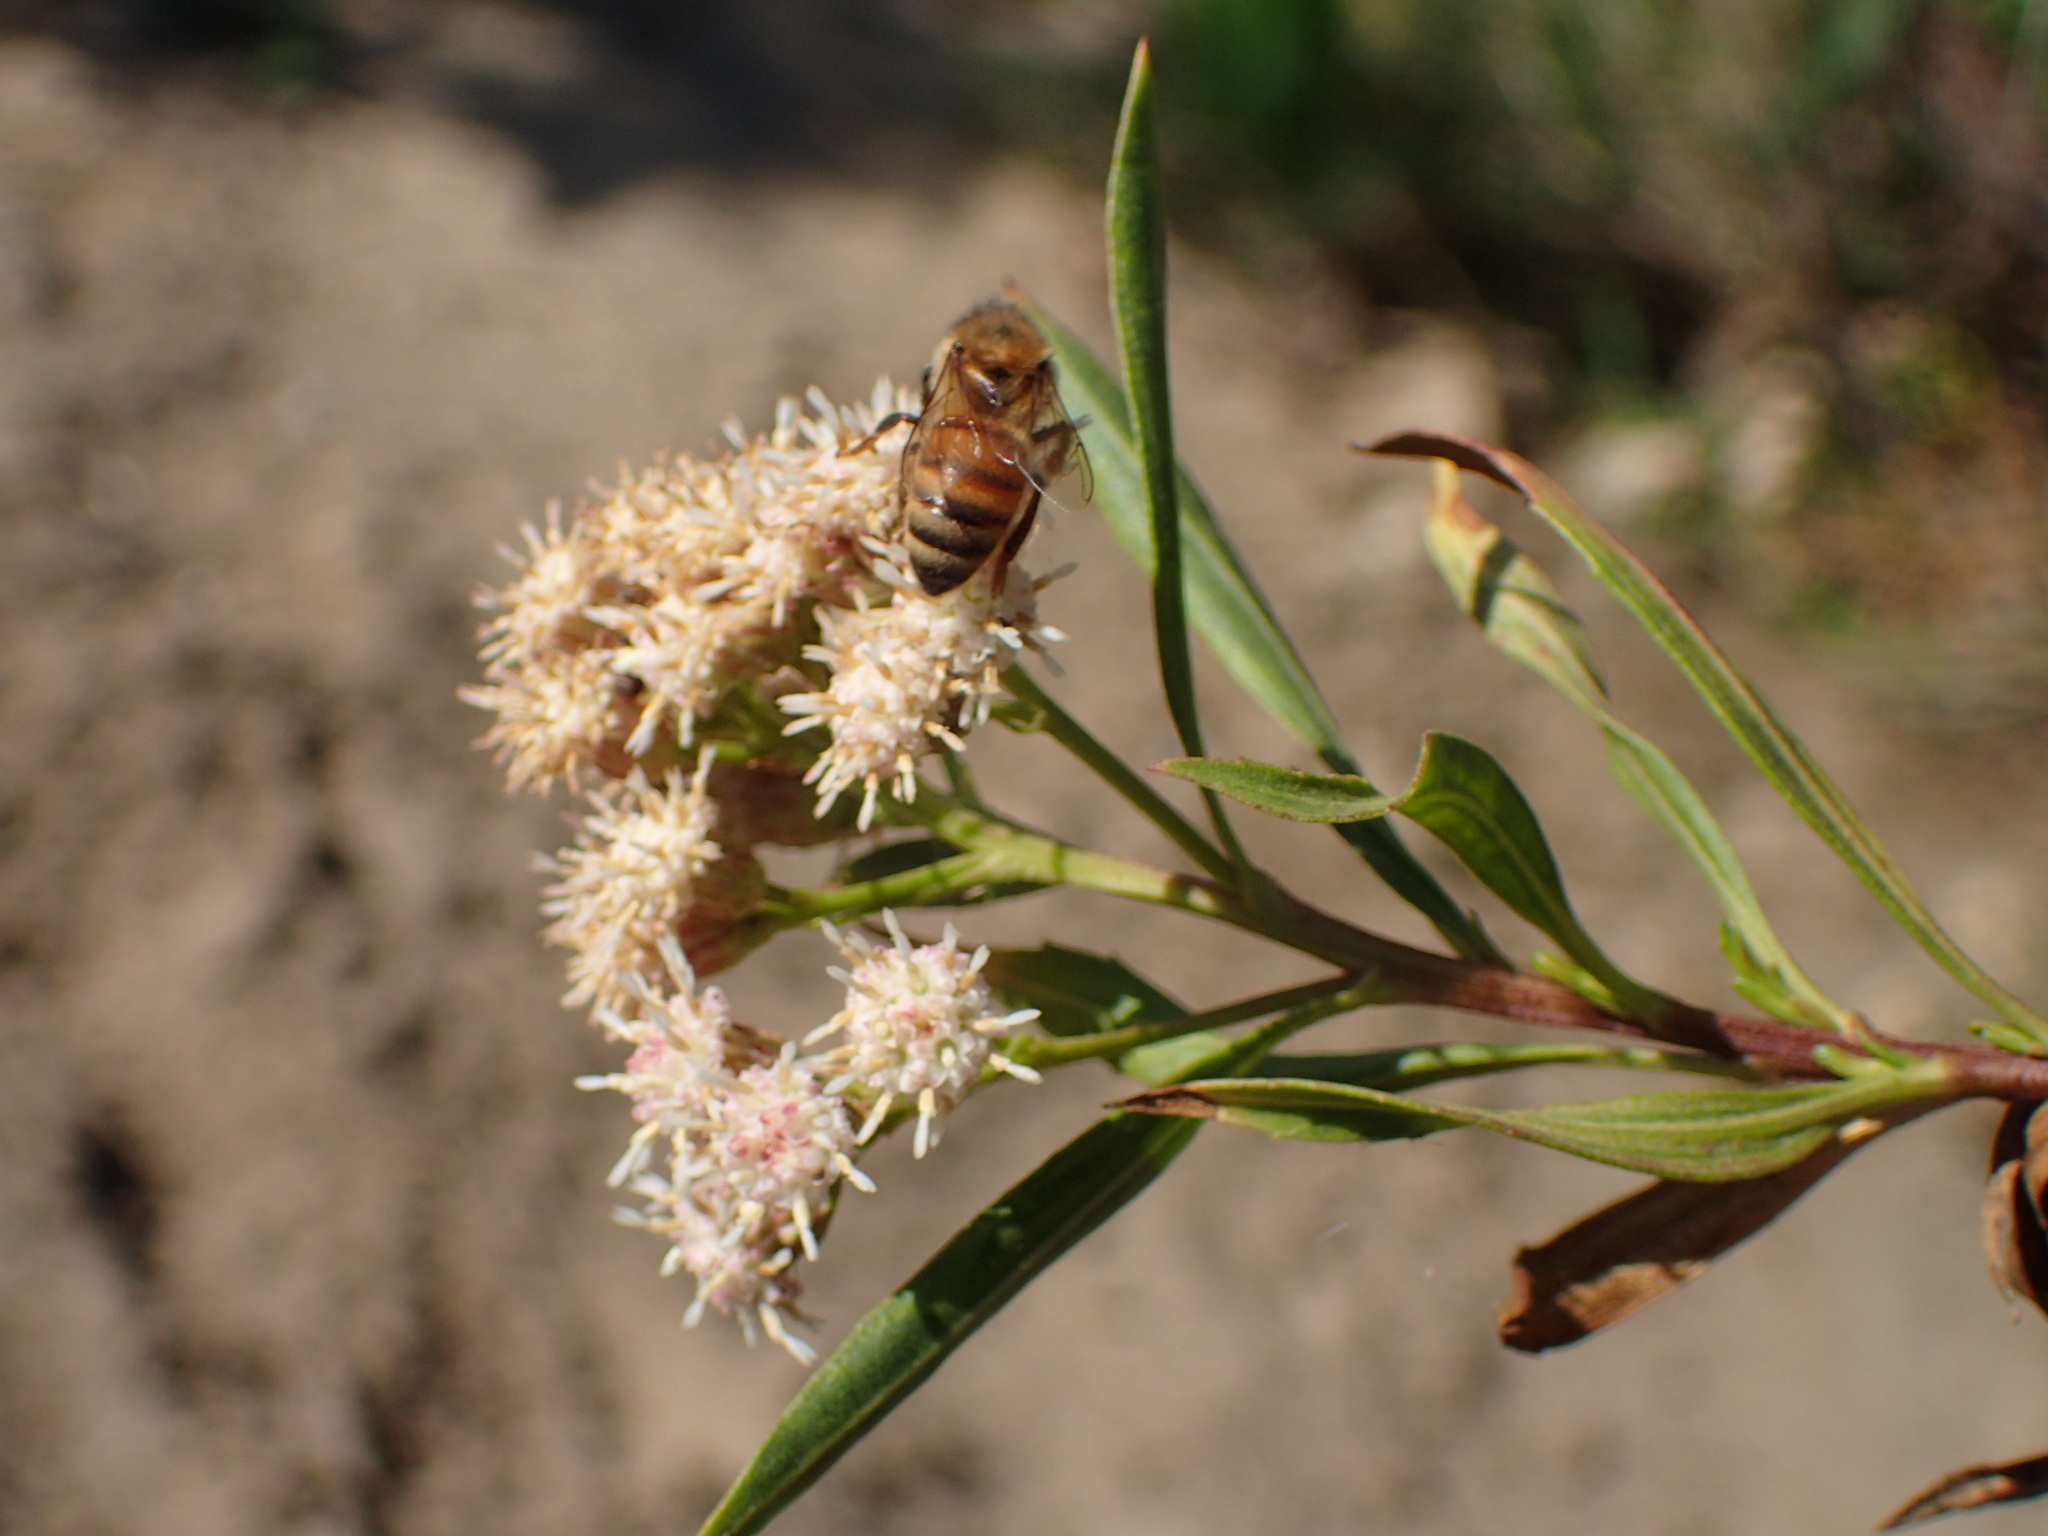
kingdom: Plantae
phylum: Tracheophyta
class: Magnoliopsida
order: Asterales
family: Asteraceae
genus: Baccharis
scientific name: Baccharis salicifolia
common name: Sticky baccharis
